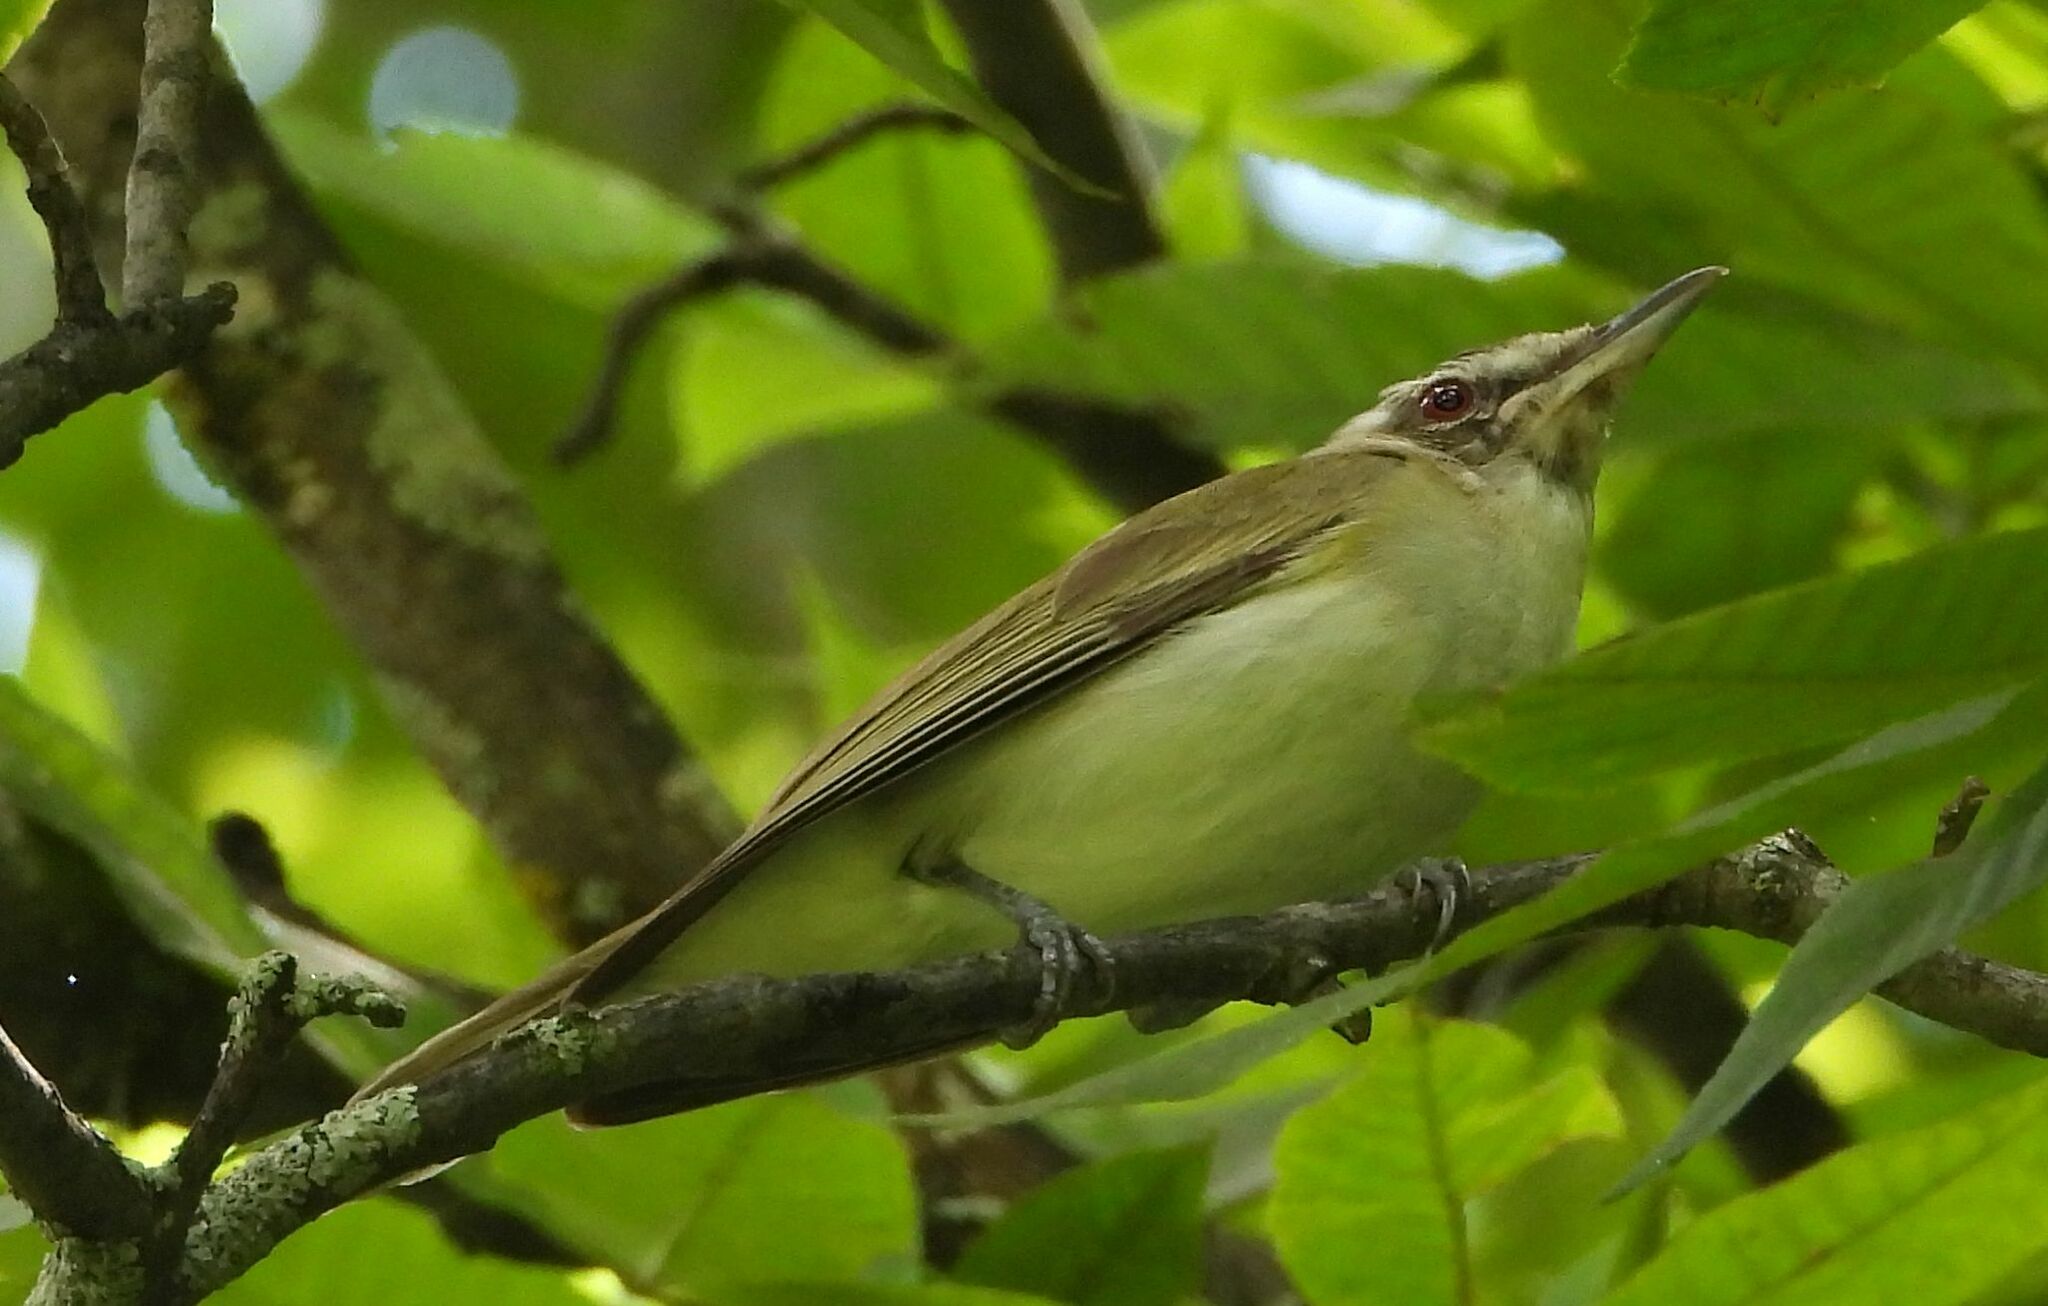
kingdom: Animalia
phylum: Chordata
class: Aves
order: Passeriformes
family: Vireonidae
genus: Vireo
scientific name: Vireo olivaceus
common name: Red-eyed vireo
